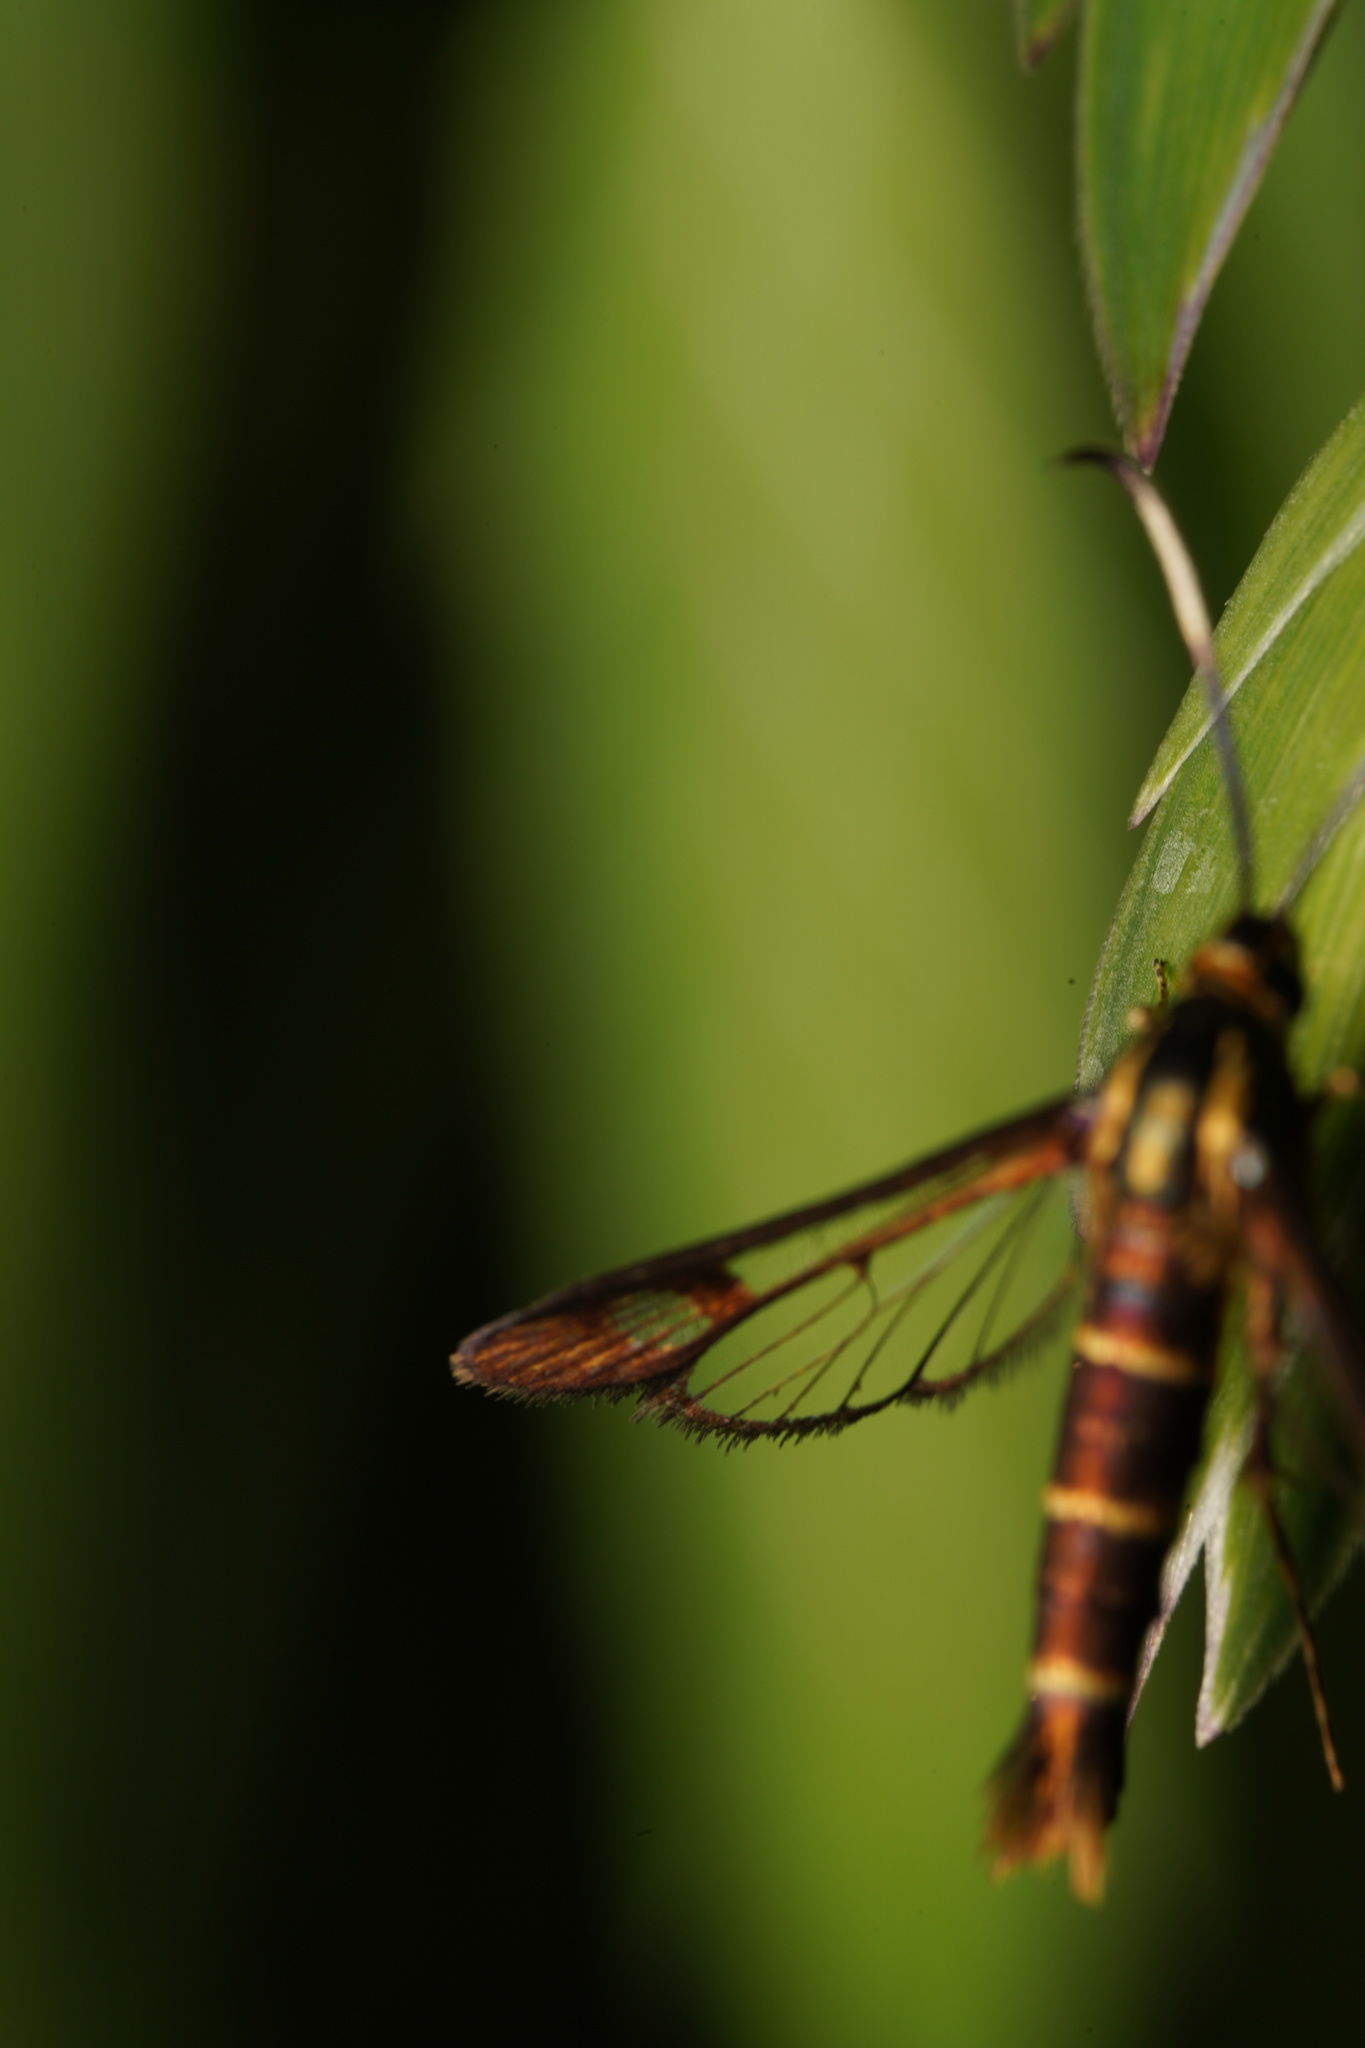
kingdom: Animalia
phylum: Arthropoda
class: Insecta
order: Lepidoptera
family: Sesiidae
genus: Carmenta
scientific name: Carmenta bassiformis
